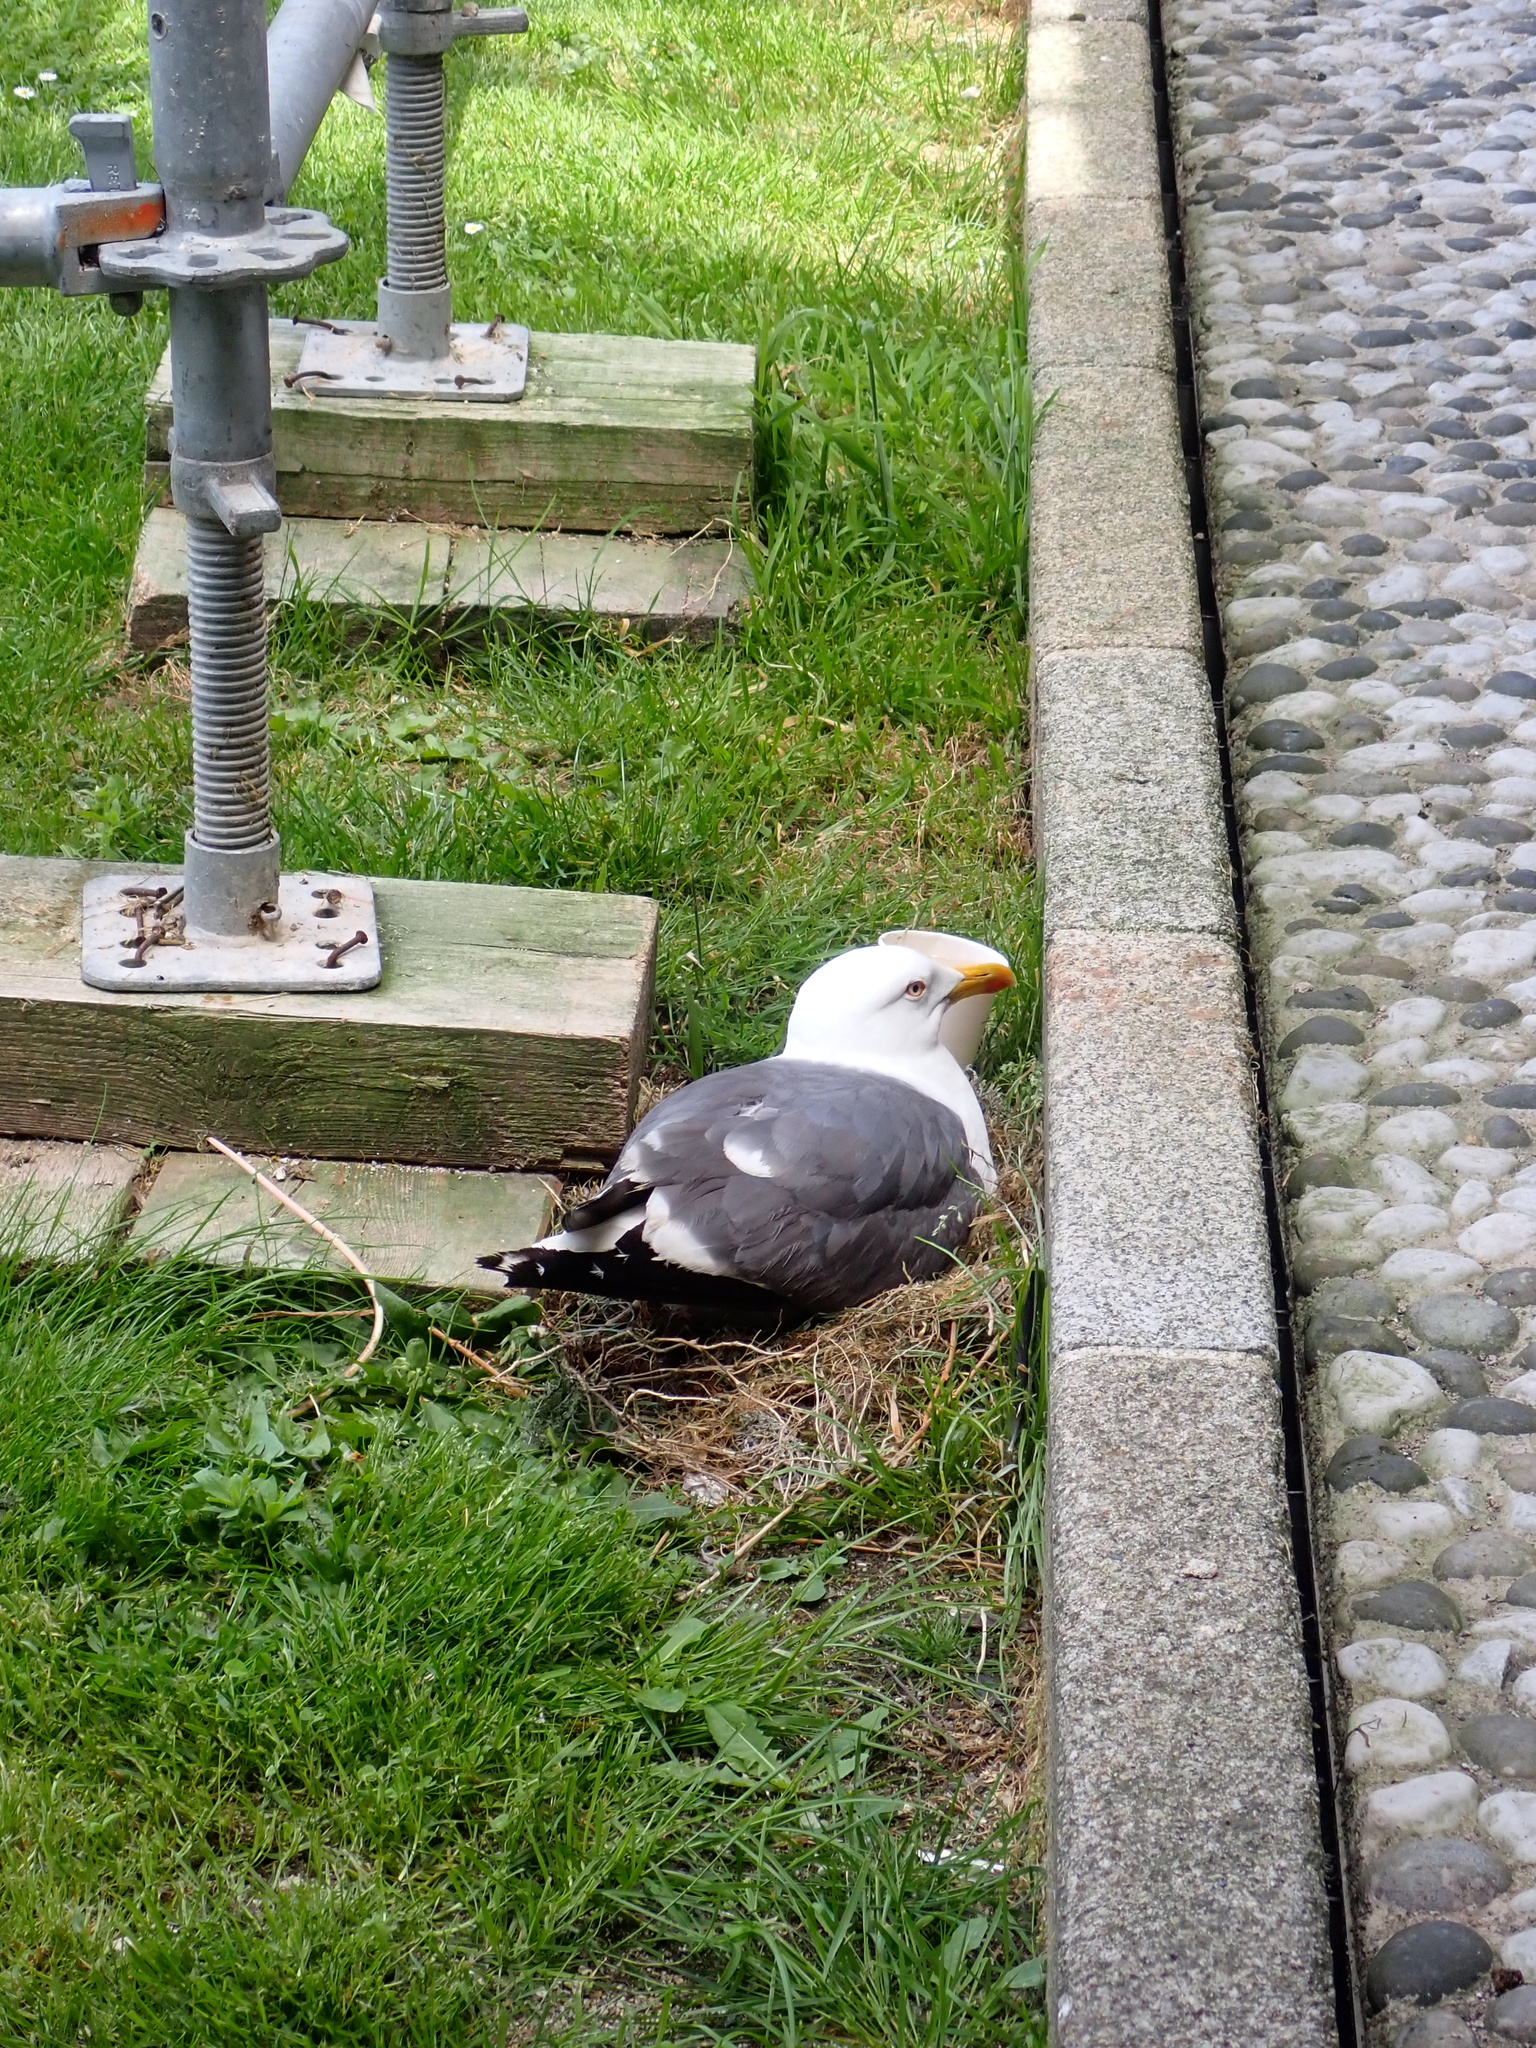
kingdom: Animalia
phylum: Chordata
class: Aves
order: Charadriiformes
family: Laridae
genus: Larus
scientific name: Larus fuscus
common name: Lesser black-backed gull
